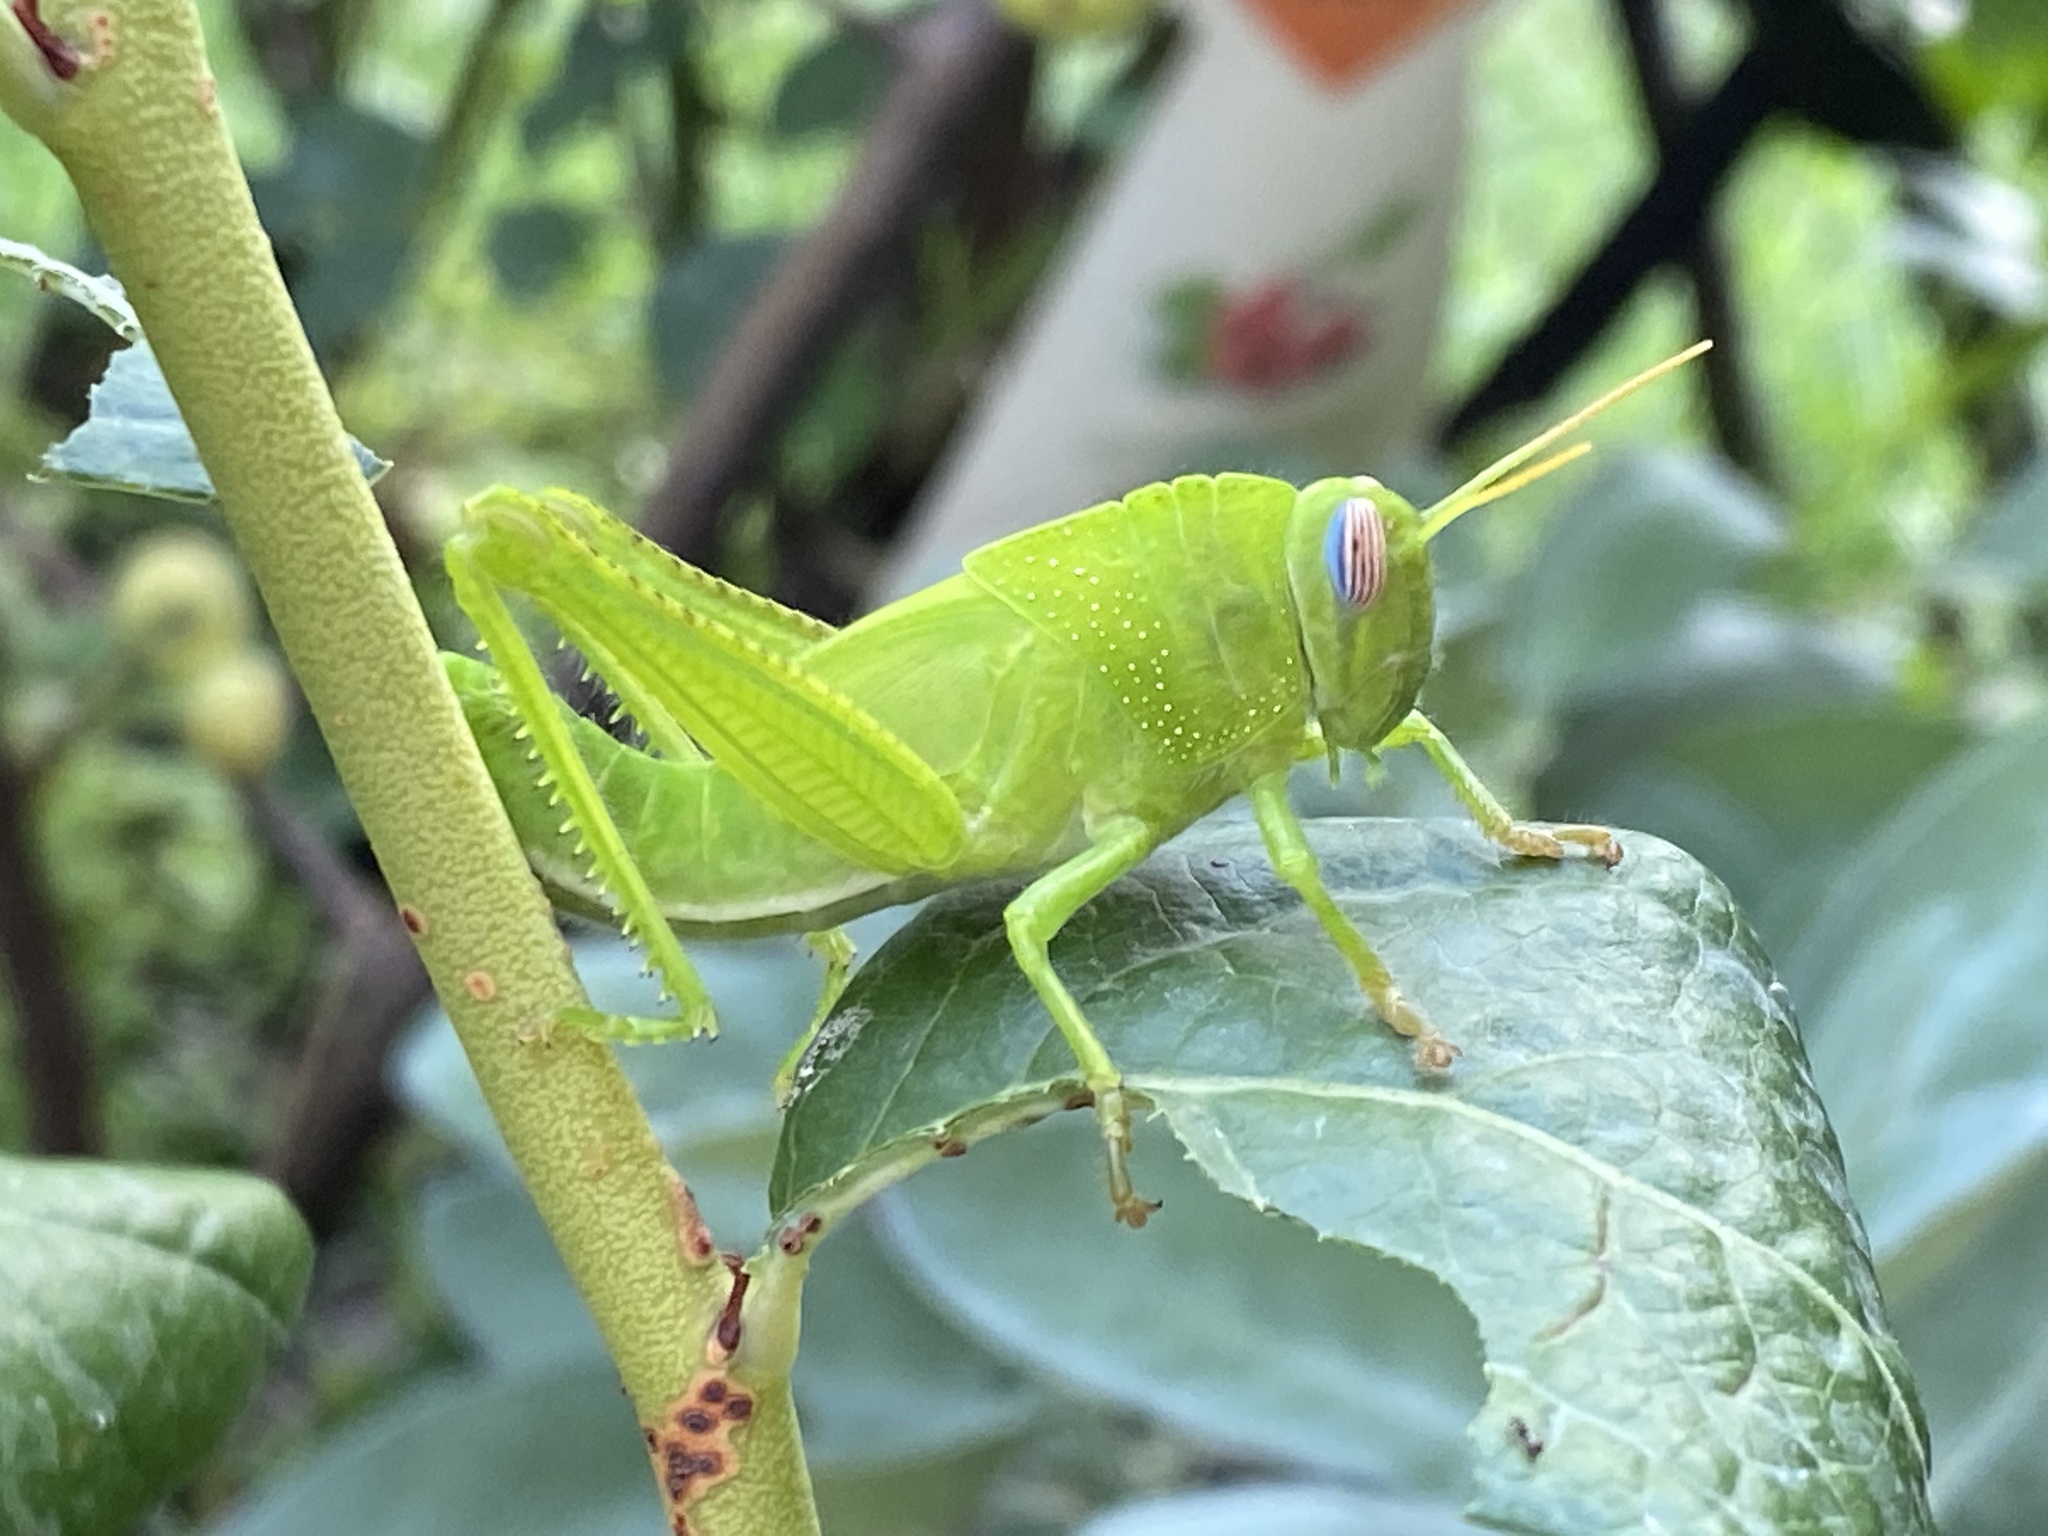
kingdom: Animalia
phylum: Arthropoda
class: Insecta
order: Orthoptera
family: Acrididae
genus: Anacridium
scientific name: Anacridium aegyptium
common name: Egyptian grasshopper
